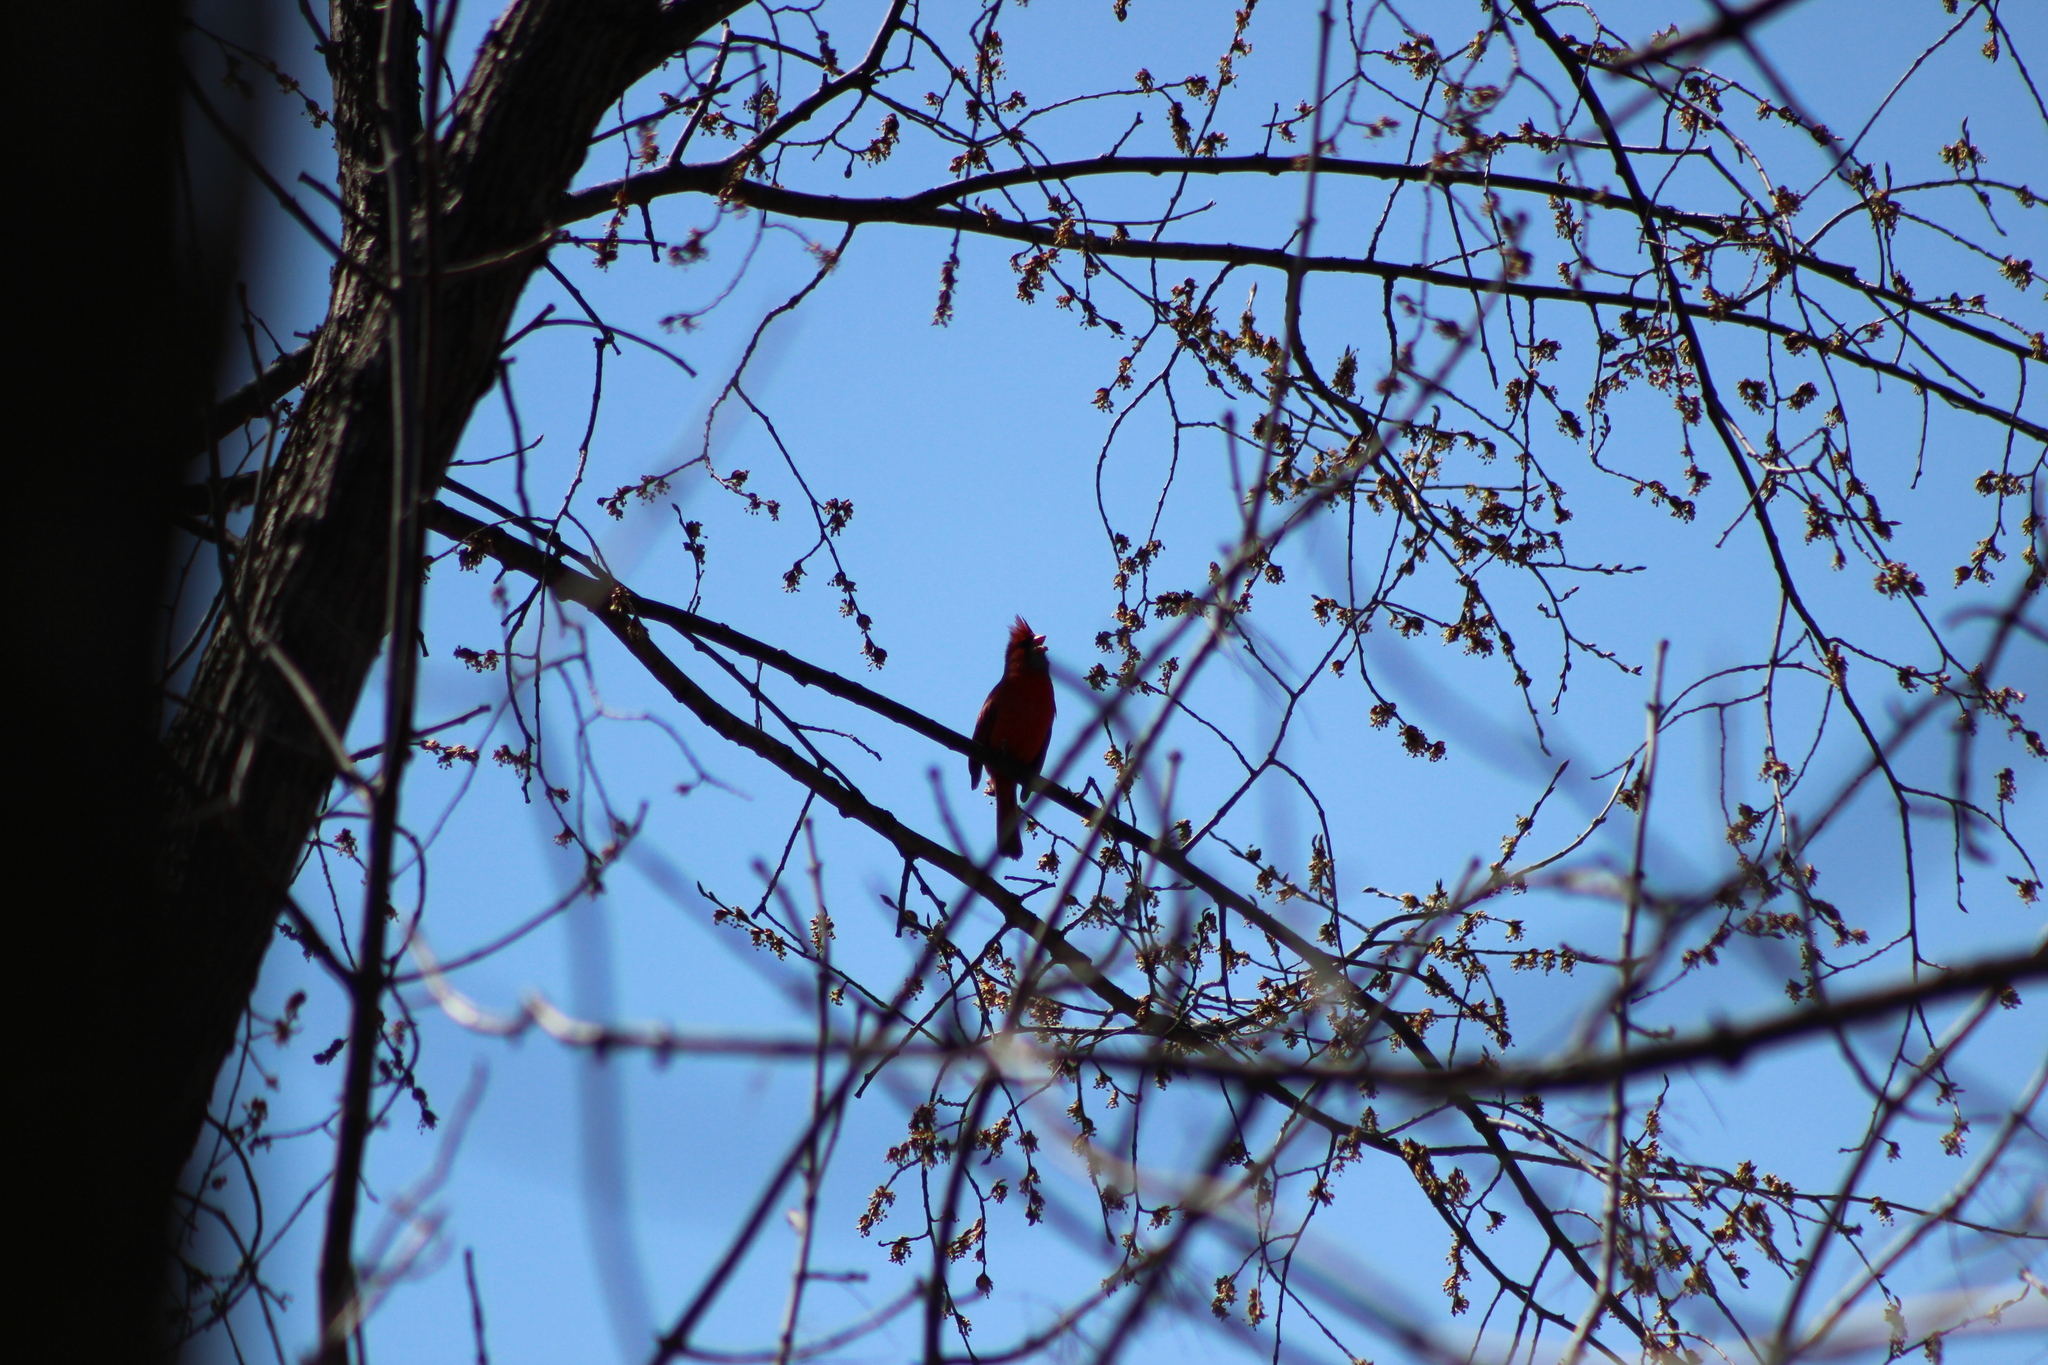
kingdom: Animalia
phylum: Chordata
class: Aves
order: Passeriformes
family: Cardinalidae
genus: Cardinalis
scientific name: Cardinalis cardinalis
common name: Northern cardinal
